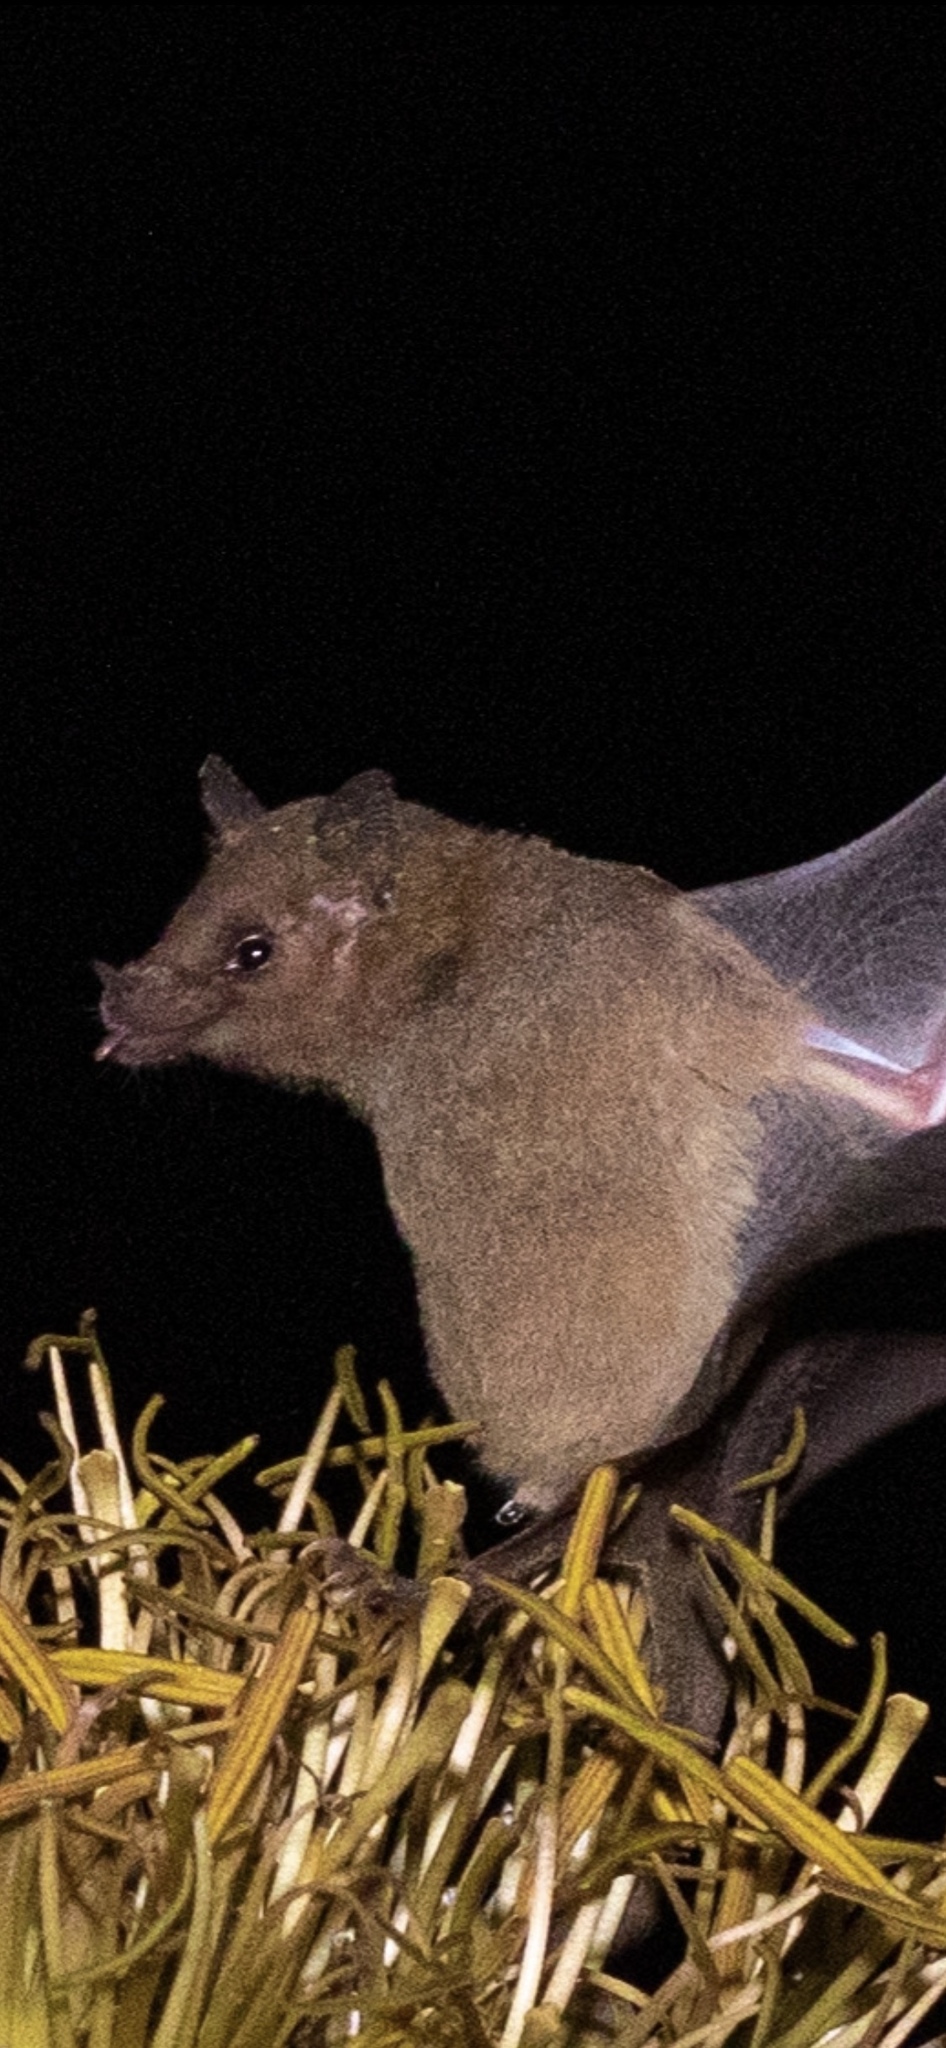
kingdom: Animalia
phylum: Chordata
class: Mammalia
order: Chiroptera
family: Phyllostomidae
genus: Leptonycteris
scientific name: Leptonycteris yerbabuenae
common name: Lesser long-nosed bat
